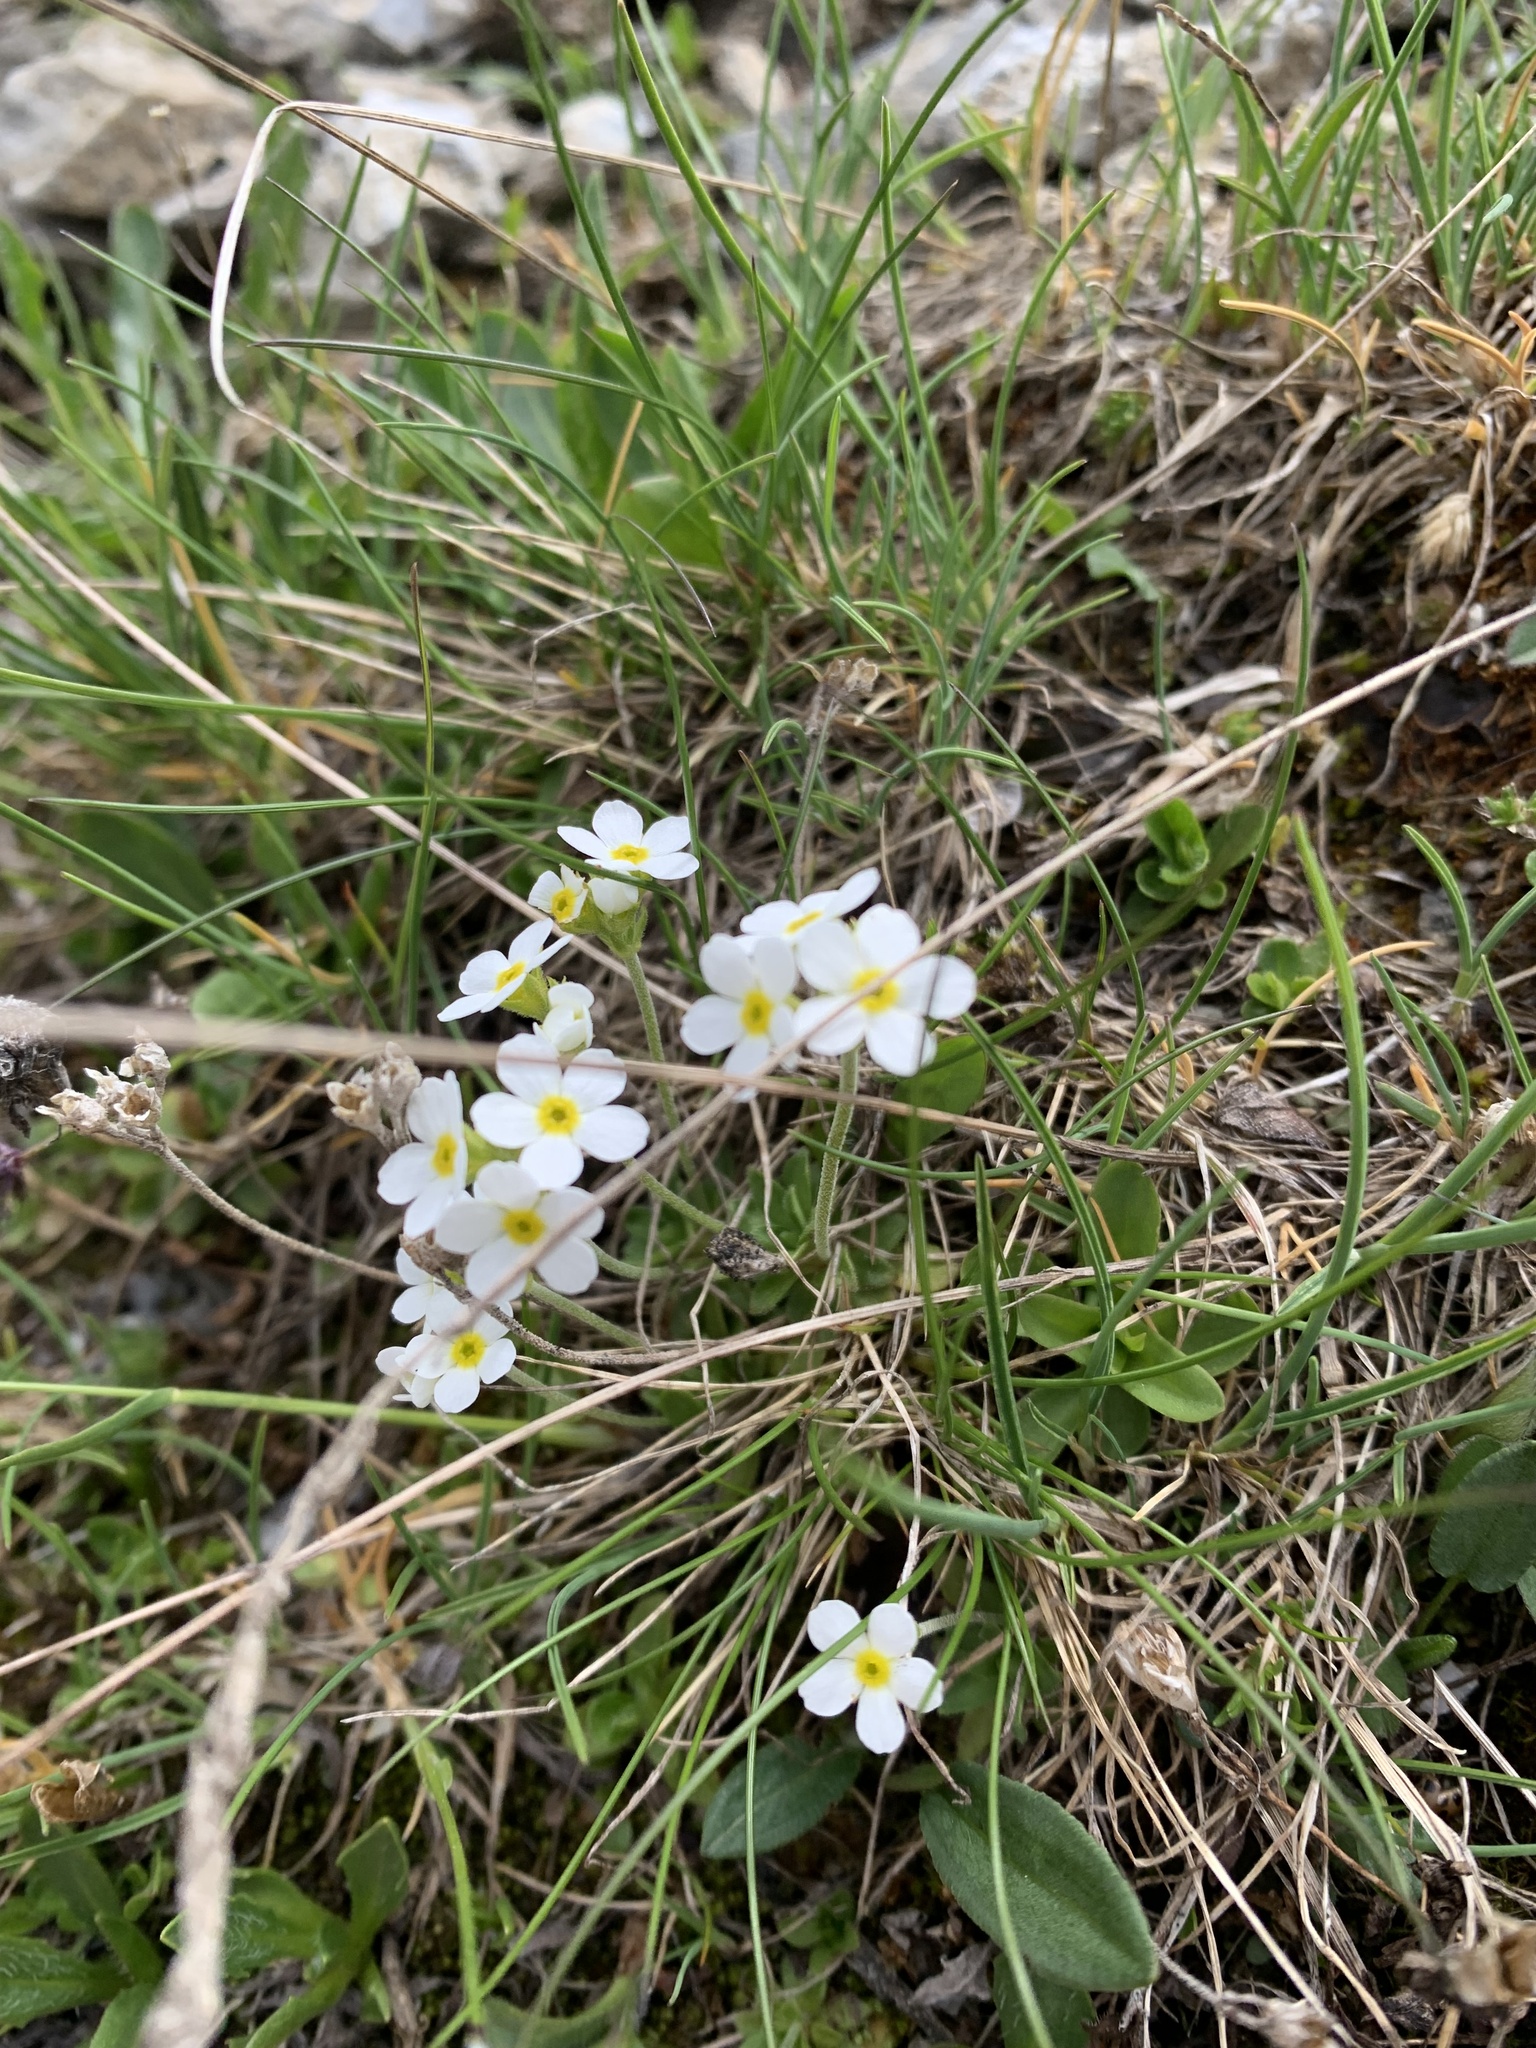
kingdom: Plantae
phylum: Tracheophyta
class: Magnoliopsida
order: Ericales
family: Primulaceae
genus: Androsace
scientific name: Androsace obtusifolia
